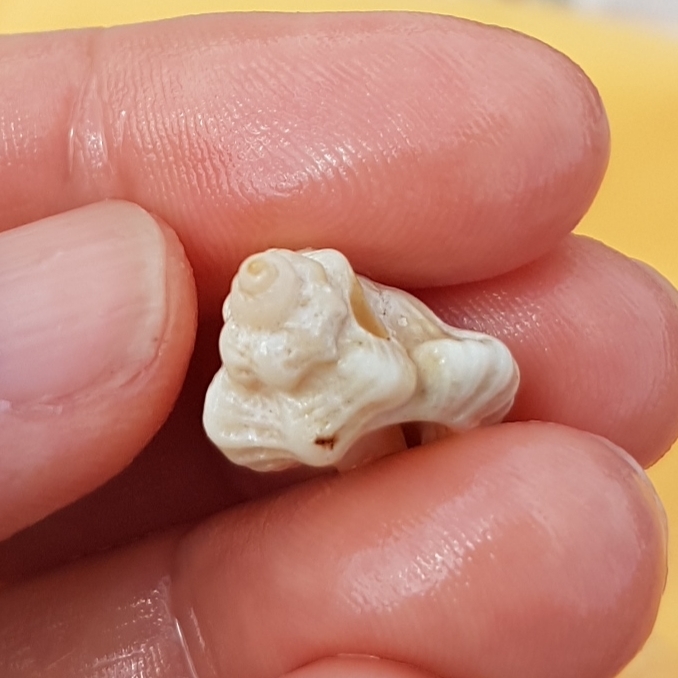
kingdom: Animalia
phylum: Mollusca
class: Gastropoda
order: Neogastropoda
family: Muricidae
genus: Ocenebra
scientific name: Ocenebra erinaceus
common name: European sting winkle
